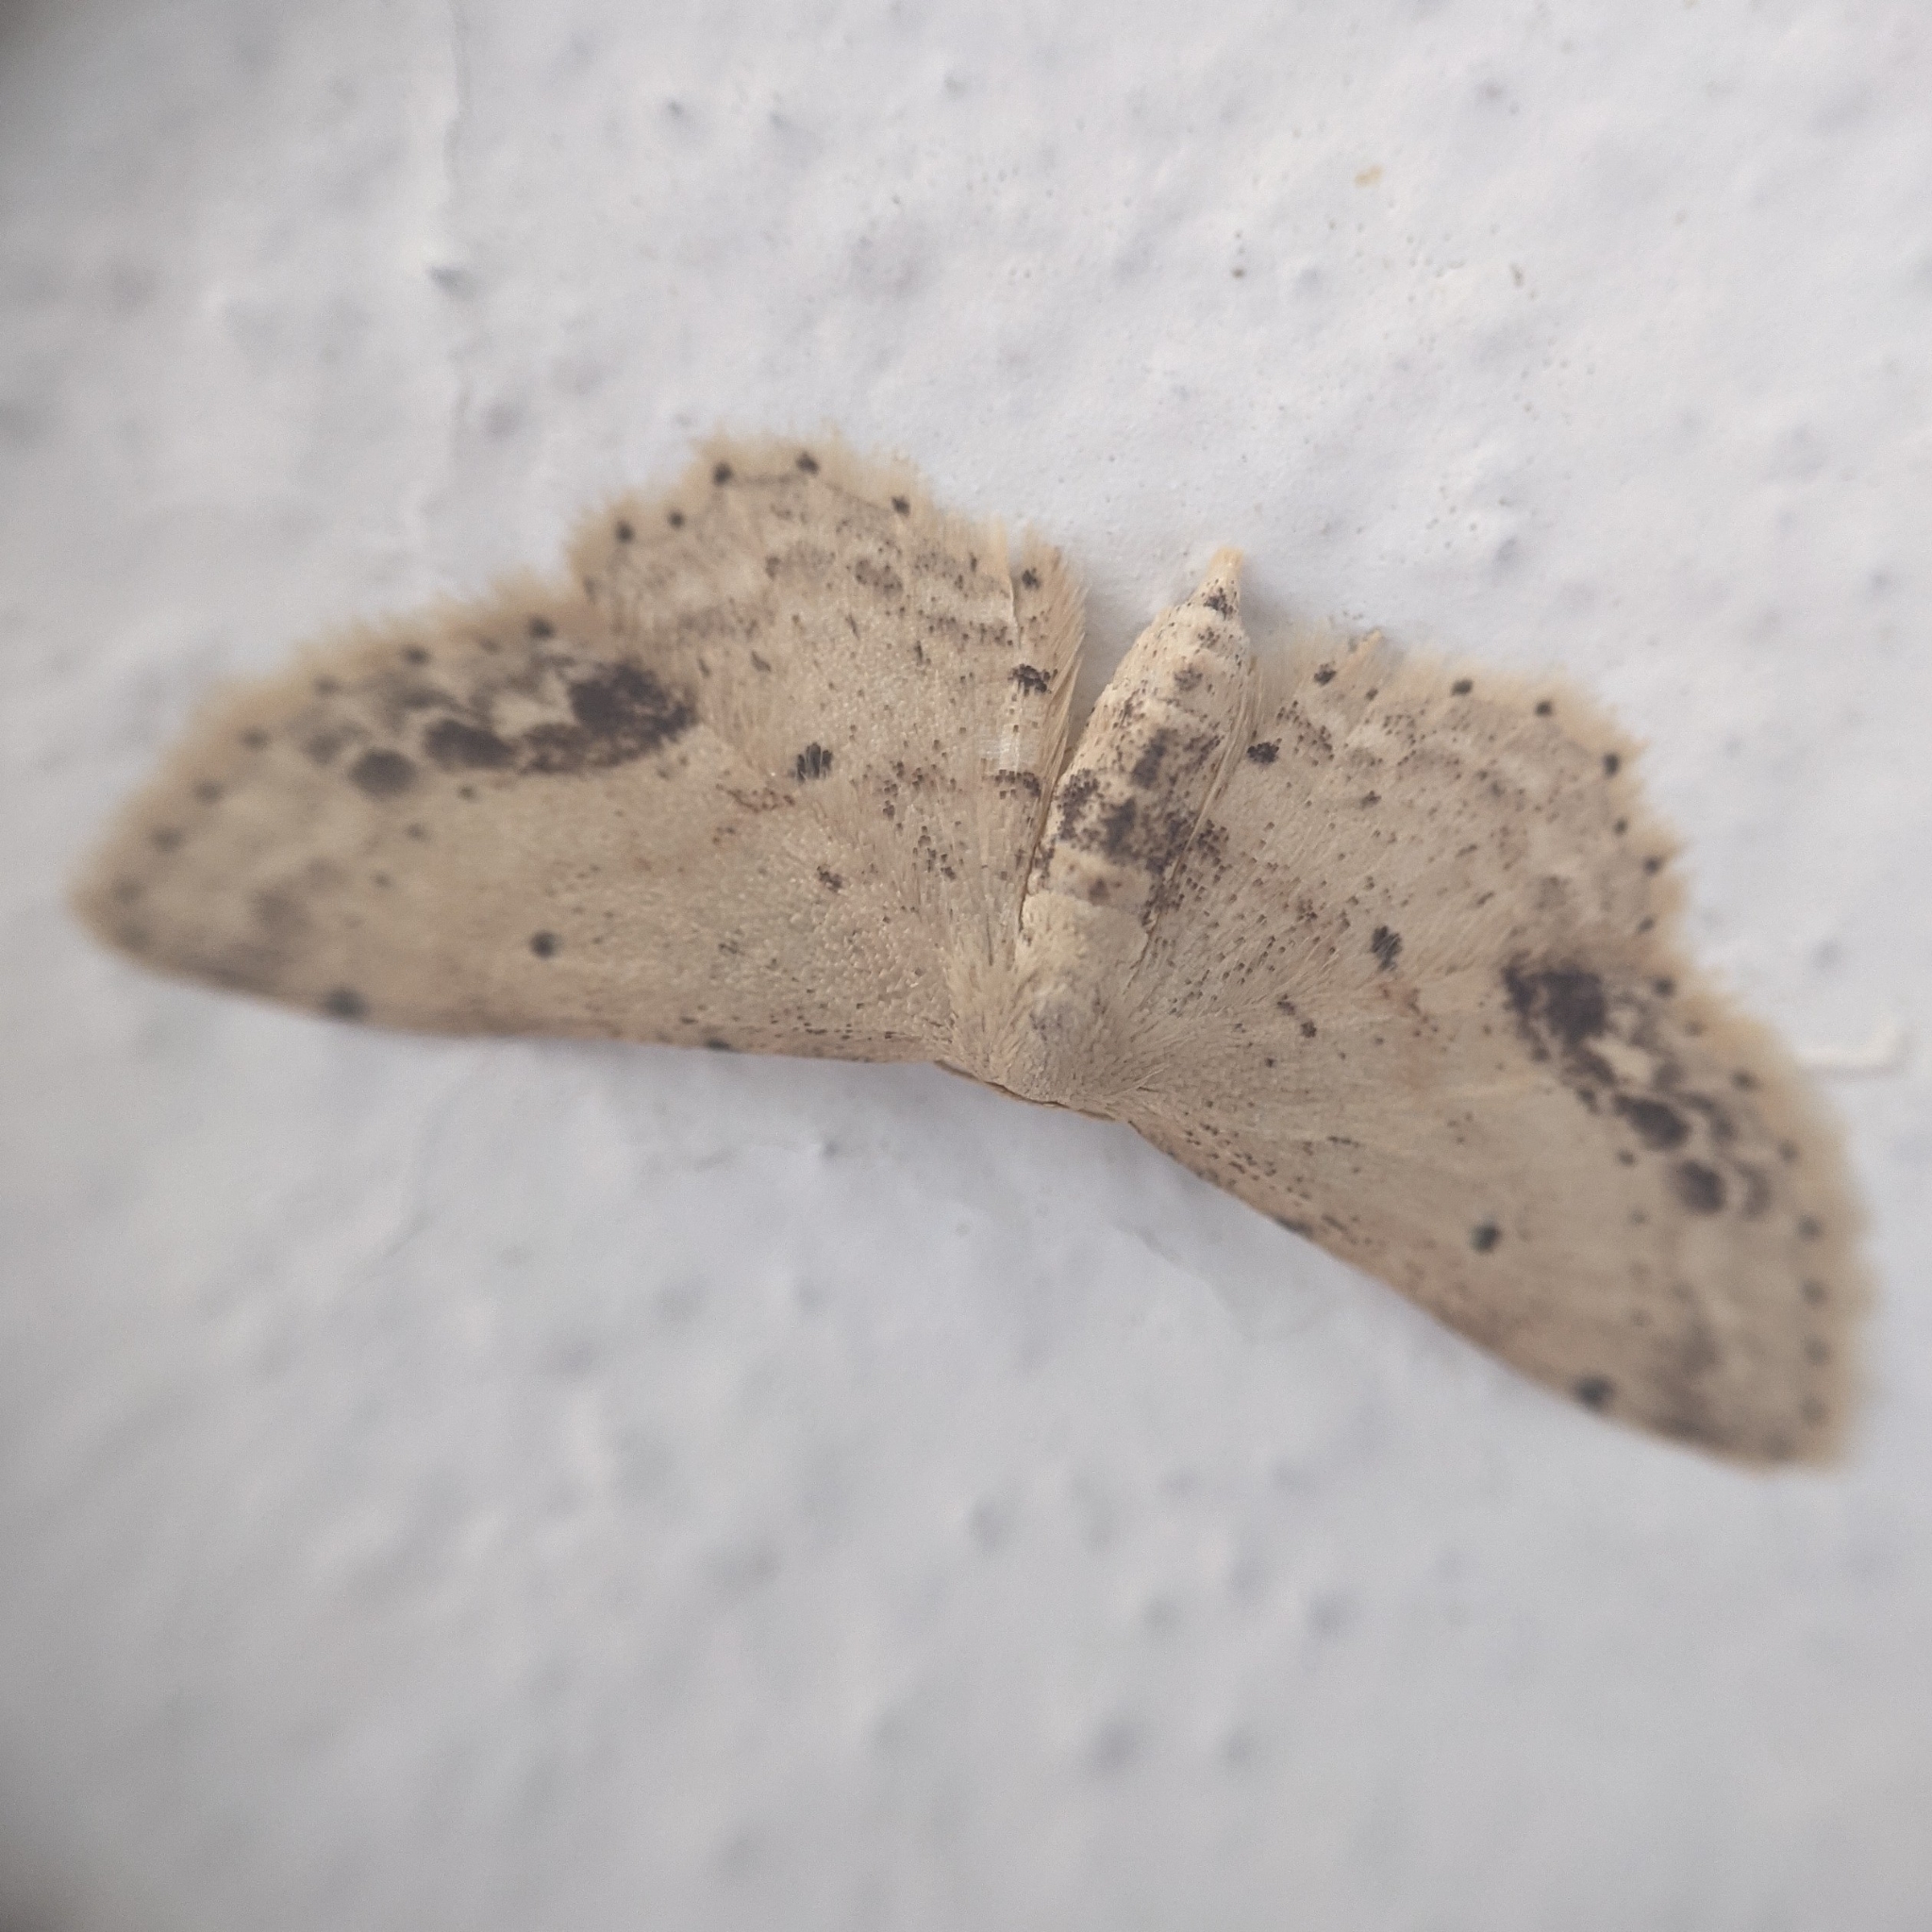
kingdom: Animalia
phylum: Arthropoda
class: Insecta
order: Lepidoptera
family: Geometridae
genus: Idaea
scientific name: Idaea dimidiata
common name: Single-dotted wave
